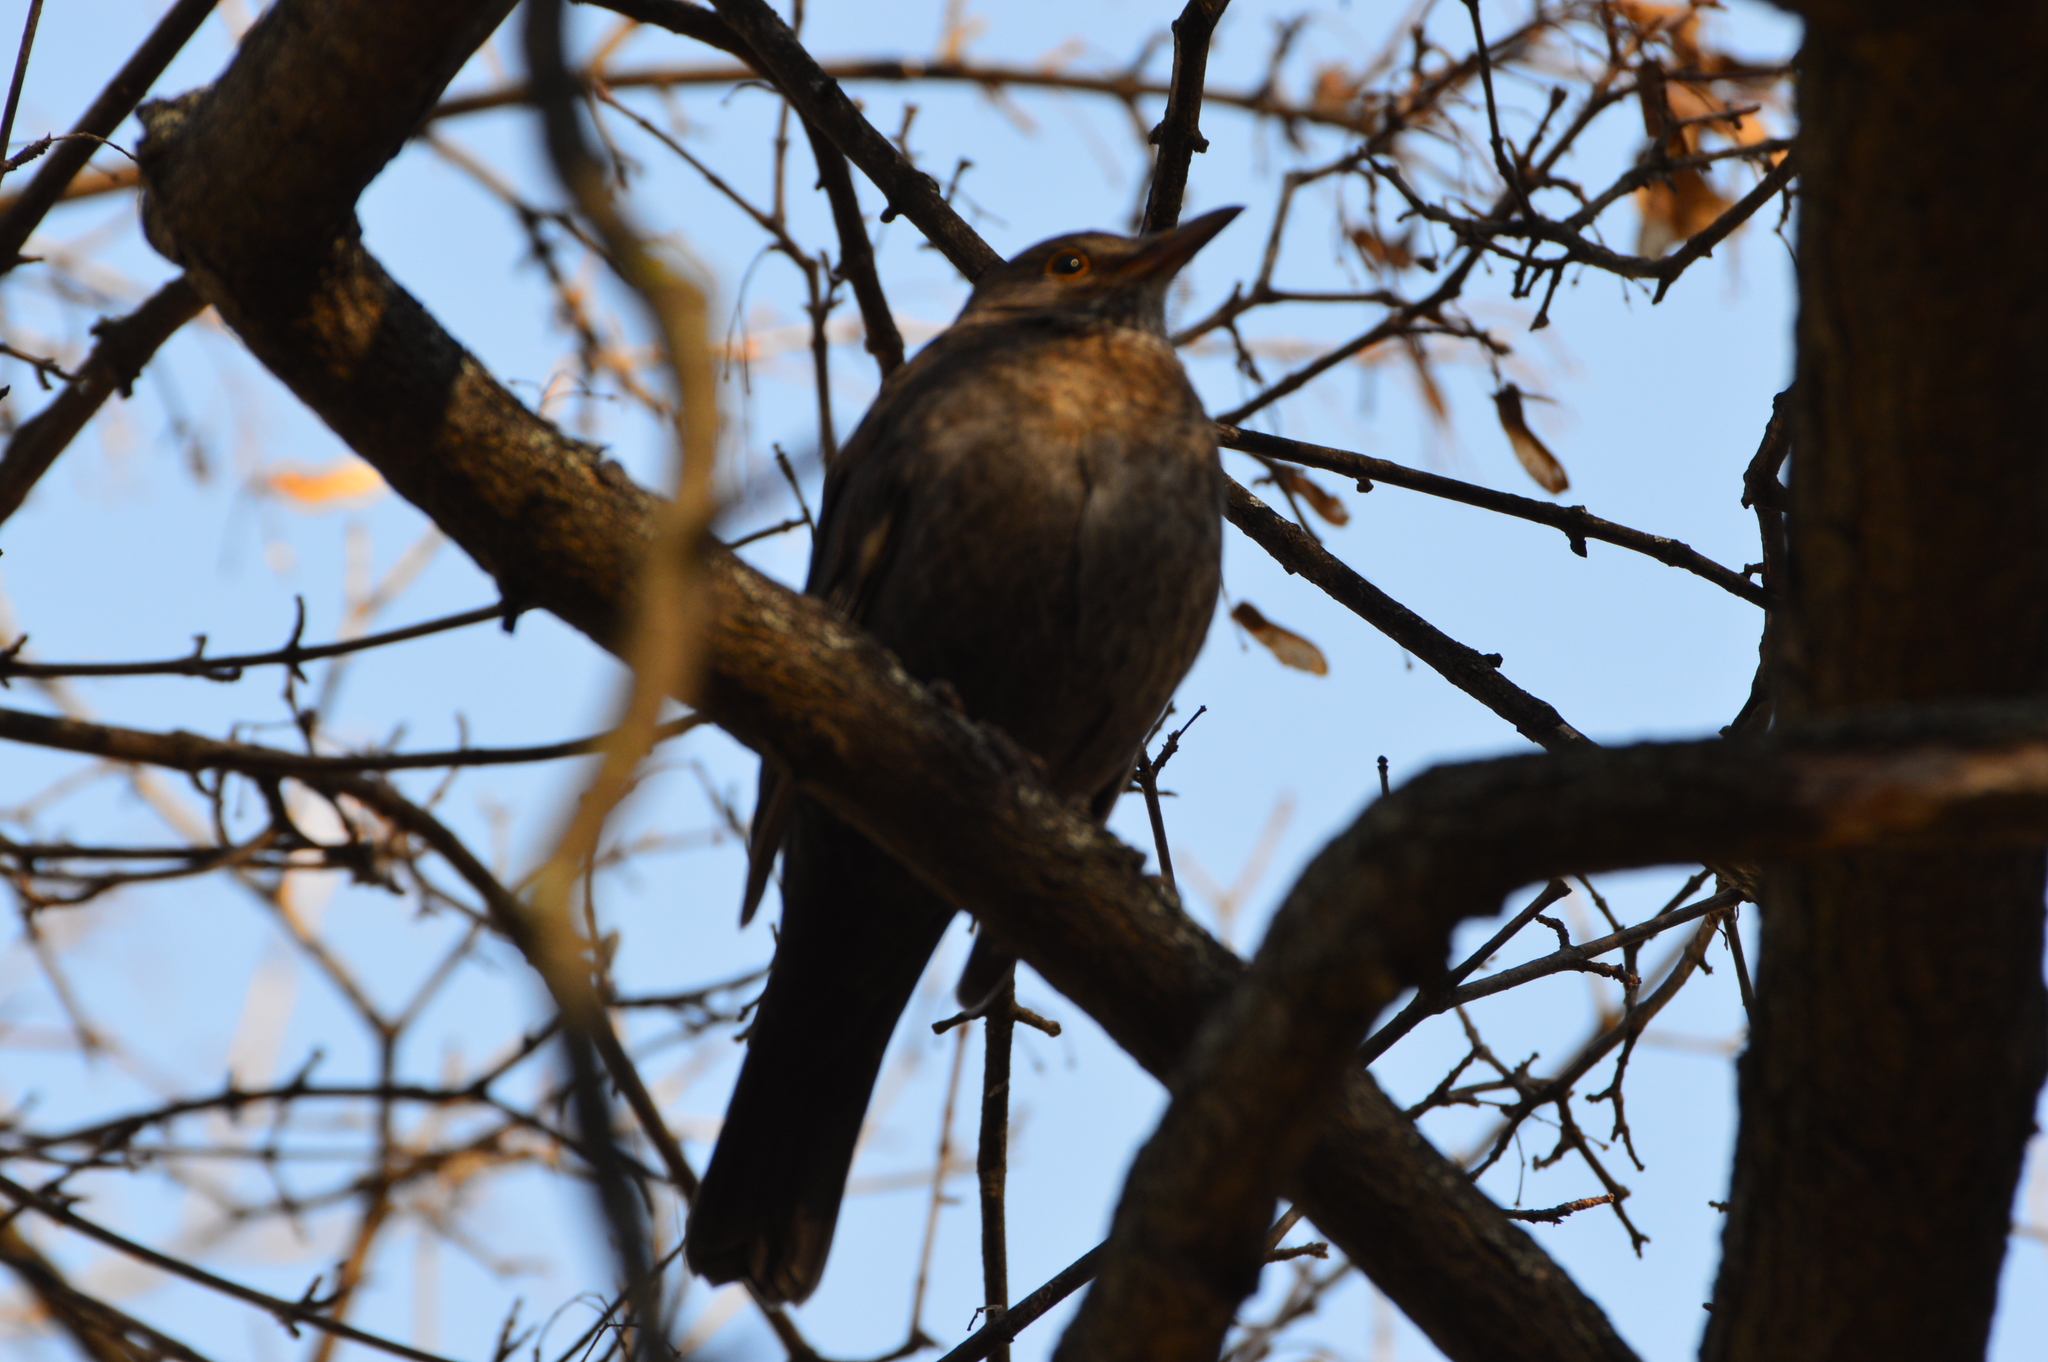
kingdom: Animalia
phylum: Chordata
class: Aves
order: Passeriformes
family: Turdidae
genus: Turdus
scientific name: Turdus merula
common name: Common blackbird
